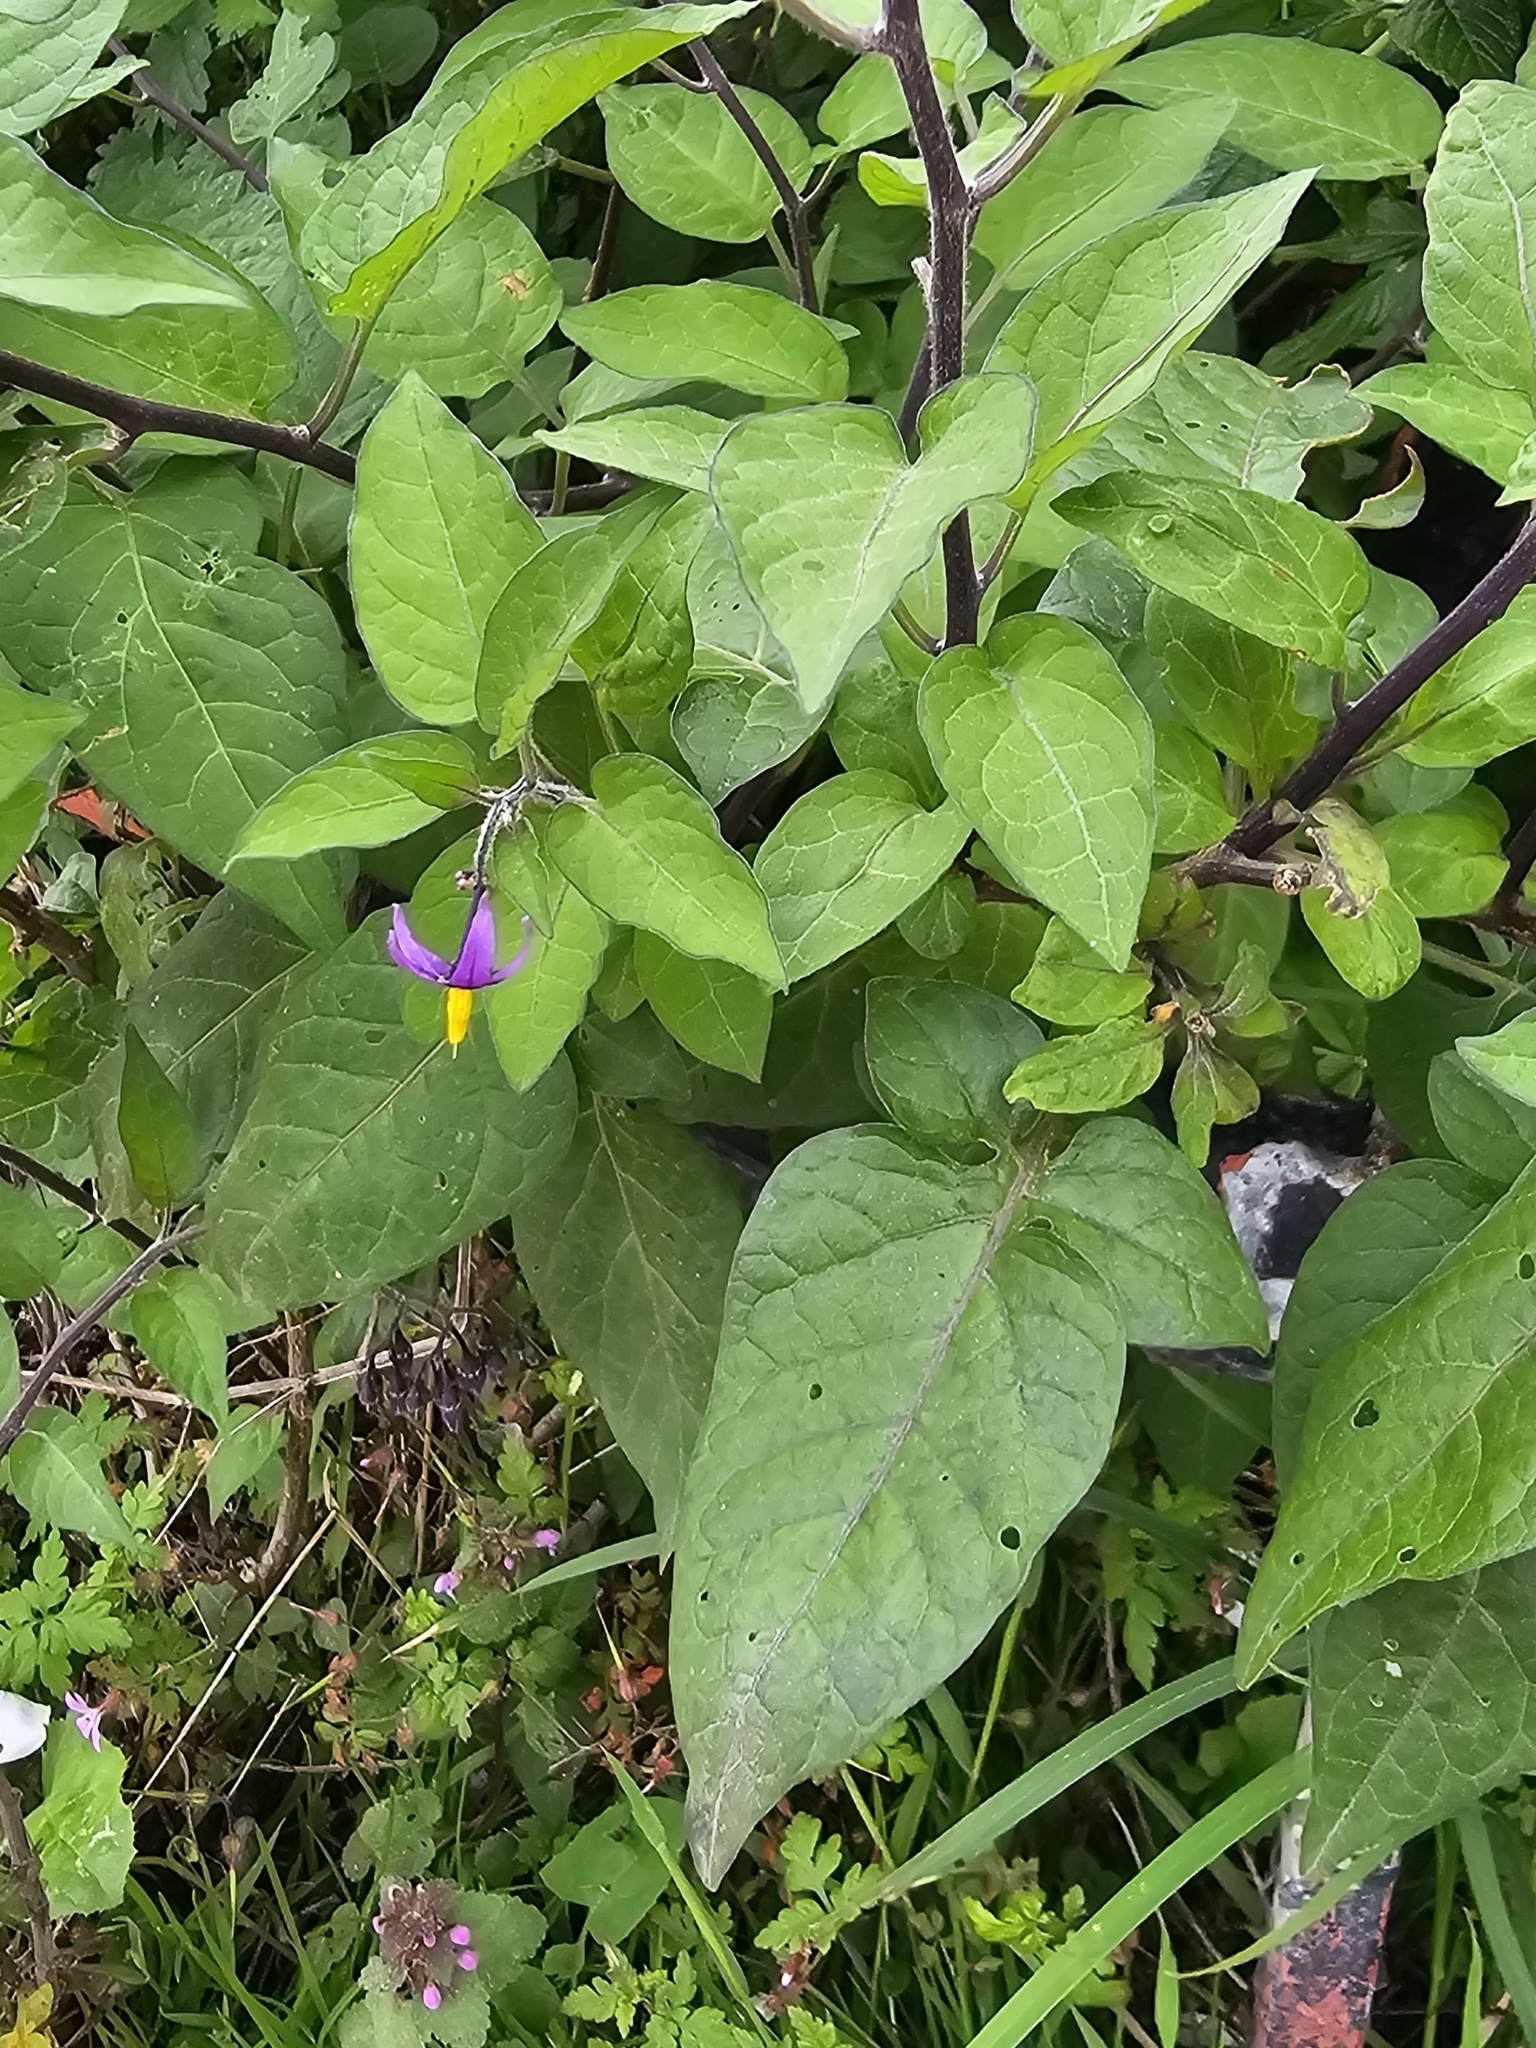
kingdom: Plantae
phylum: Tracheophyta
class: Magnoliopsida
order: Solanales
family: Solanaceae
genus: Solanum
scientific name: Solanum dulcamara
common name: Climbing nightshade
